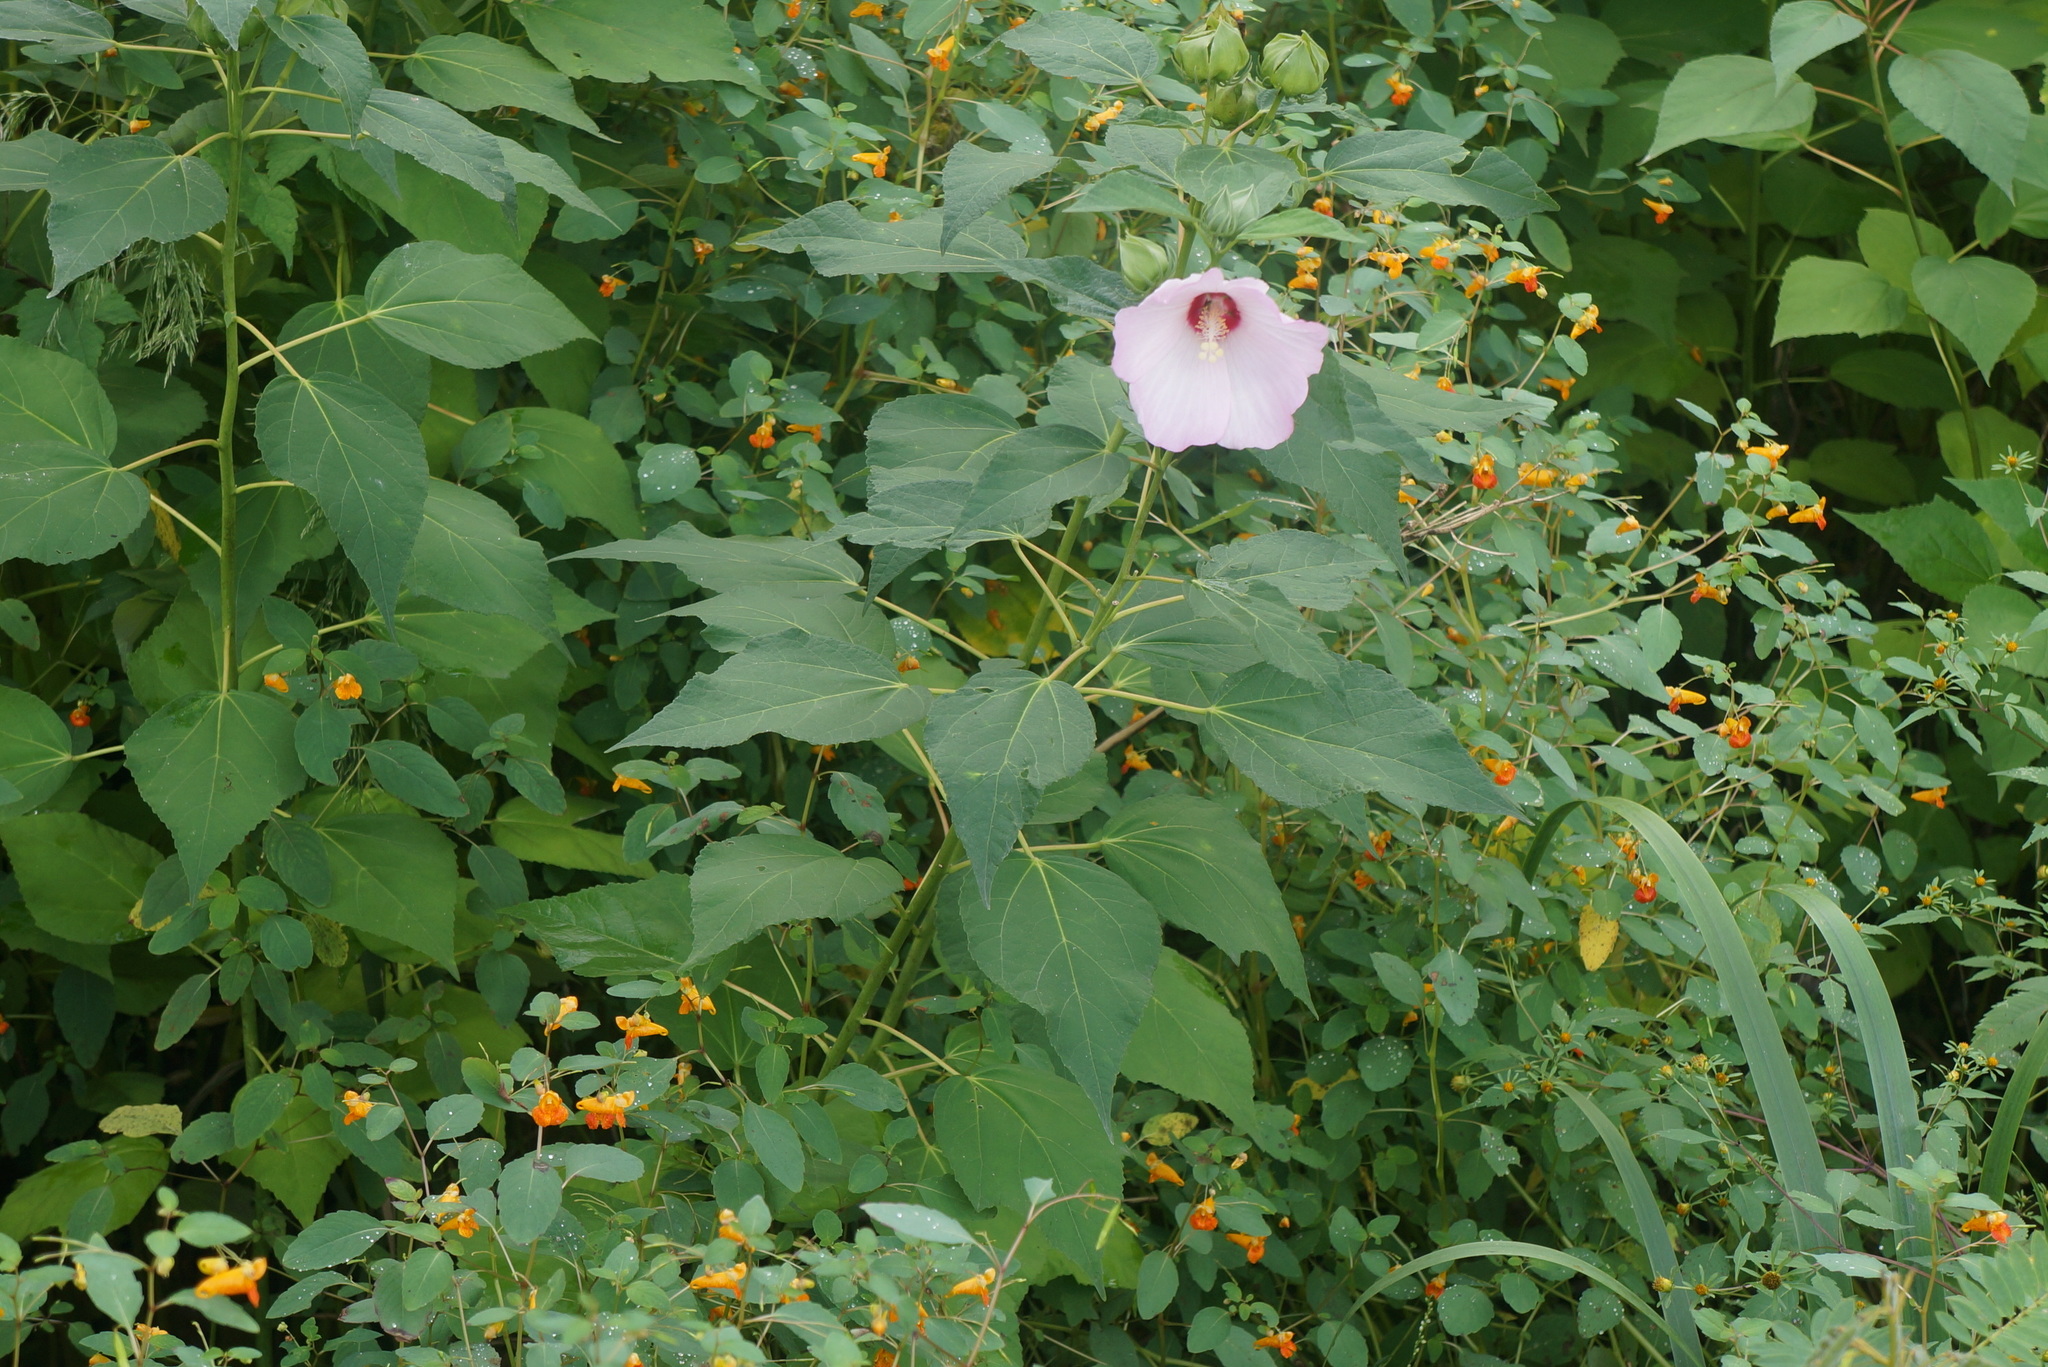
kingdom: Plantae
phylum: Tracheophyta
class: Magnoliopsida
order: Malvales
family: Malvaceae
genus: Hibiscus
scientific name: Hibiscus moscheutos
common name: Common rose-mallow
